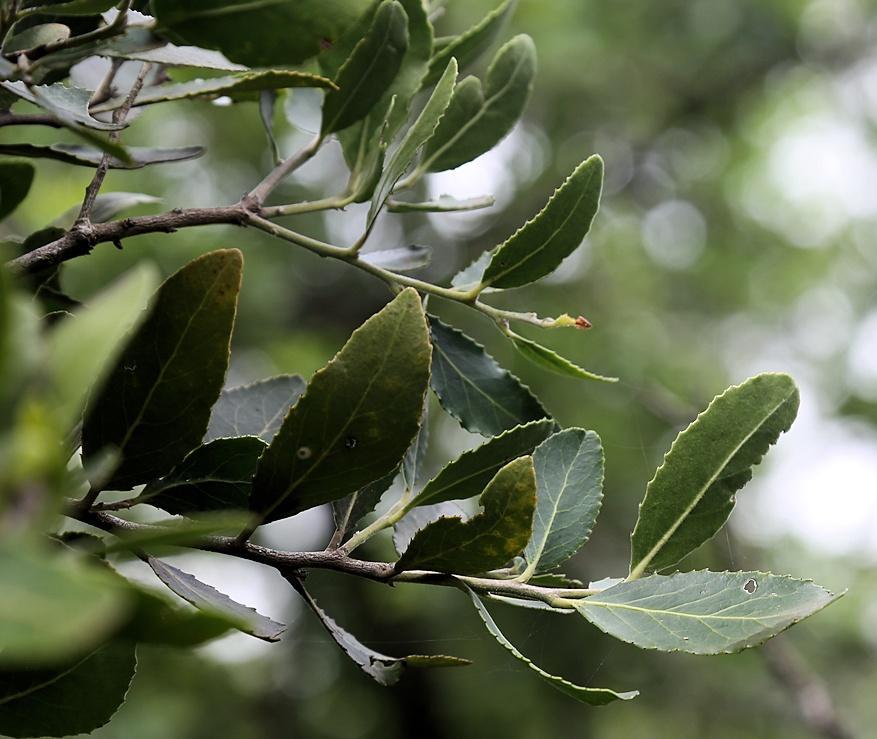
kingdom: Plantae
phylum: Tracheophyta
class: Magnoliopsida
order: Celastrales
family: Celastraceae
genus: Mystroxylon
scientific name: Mystroxylon aethiopicum
